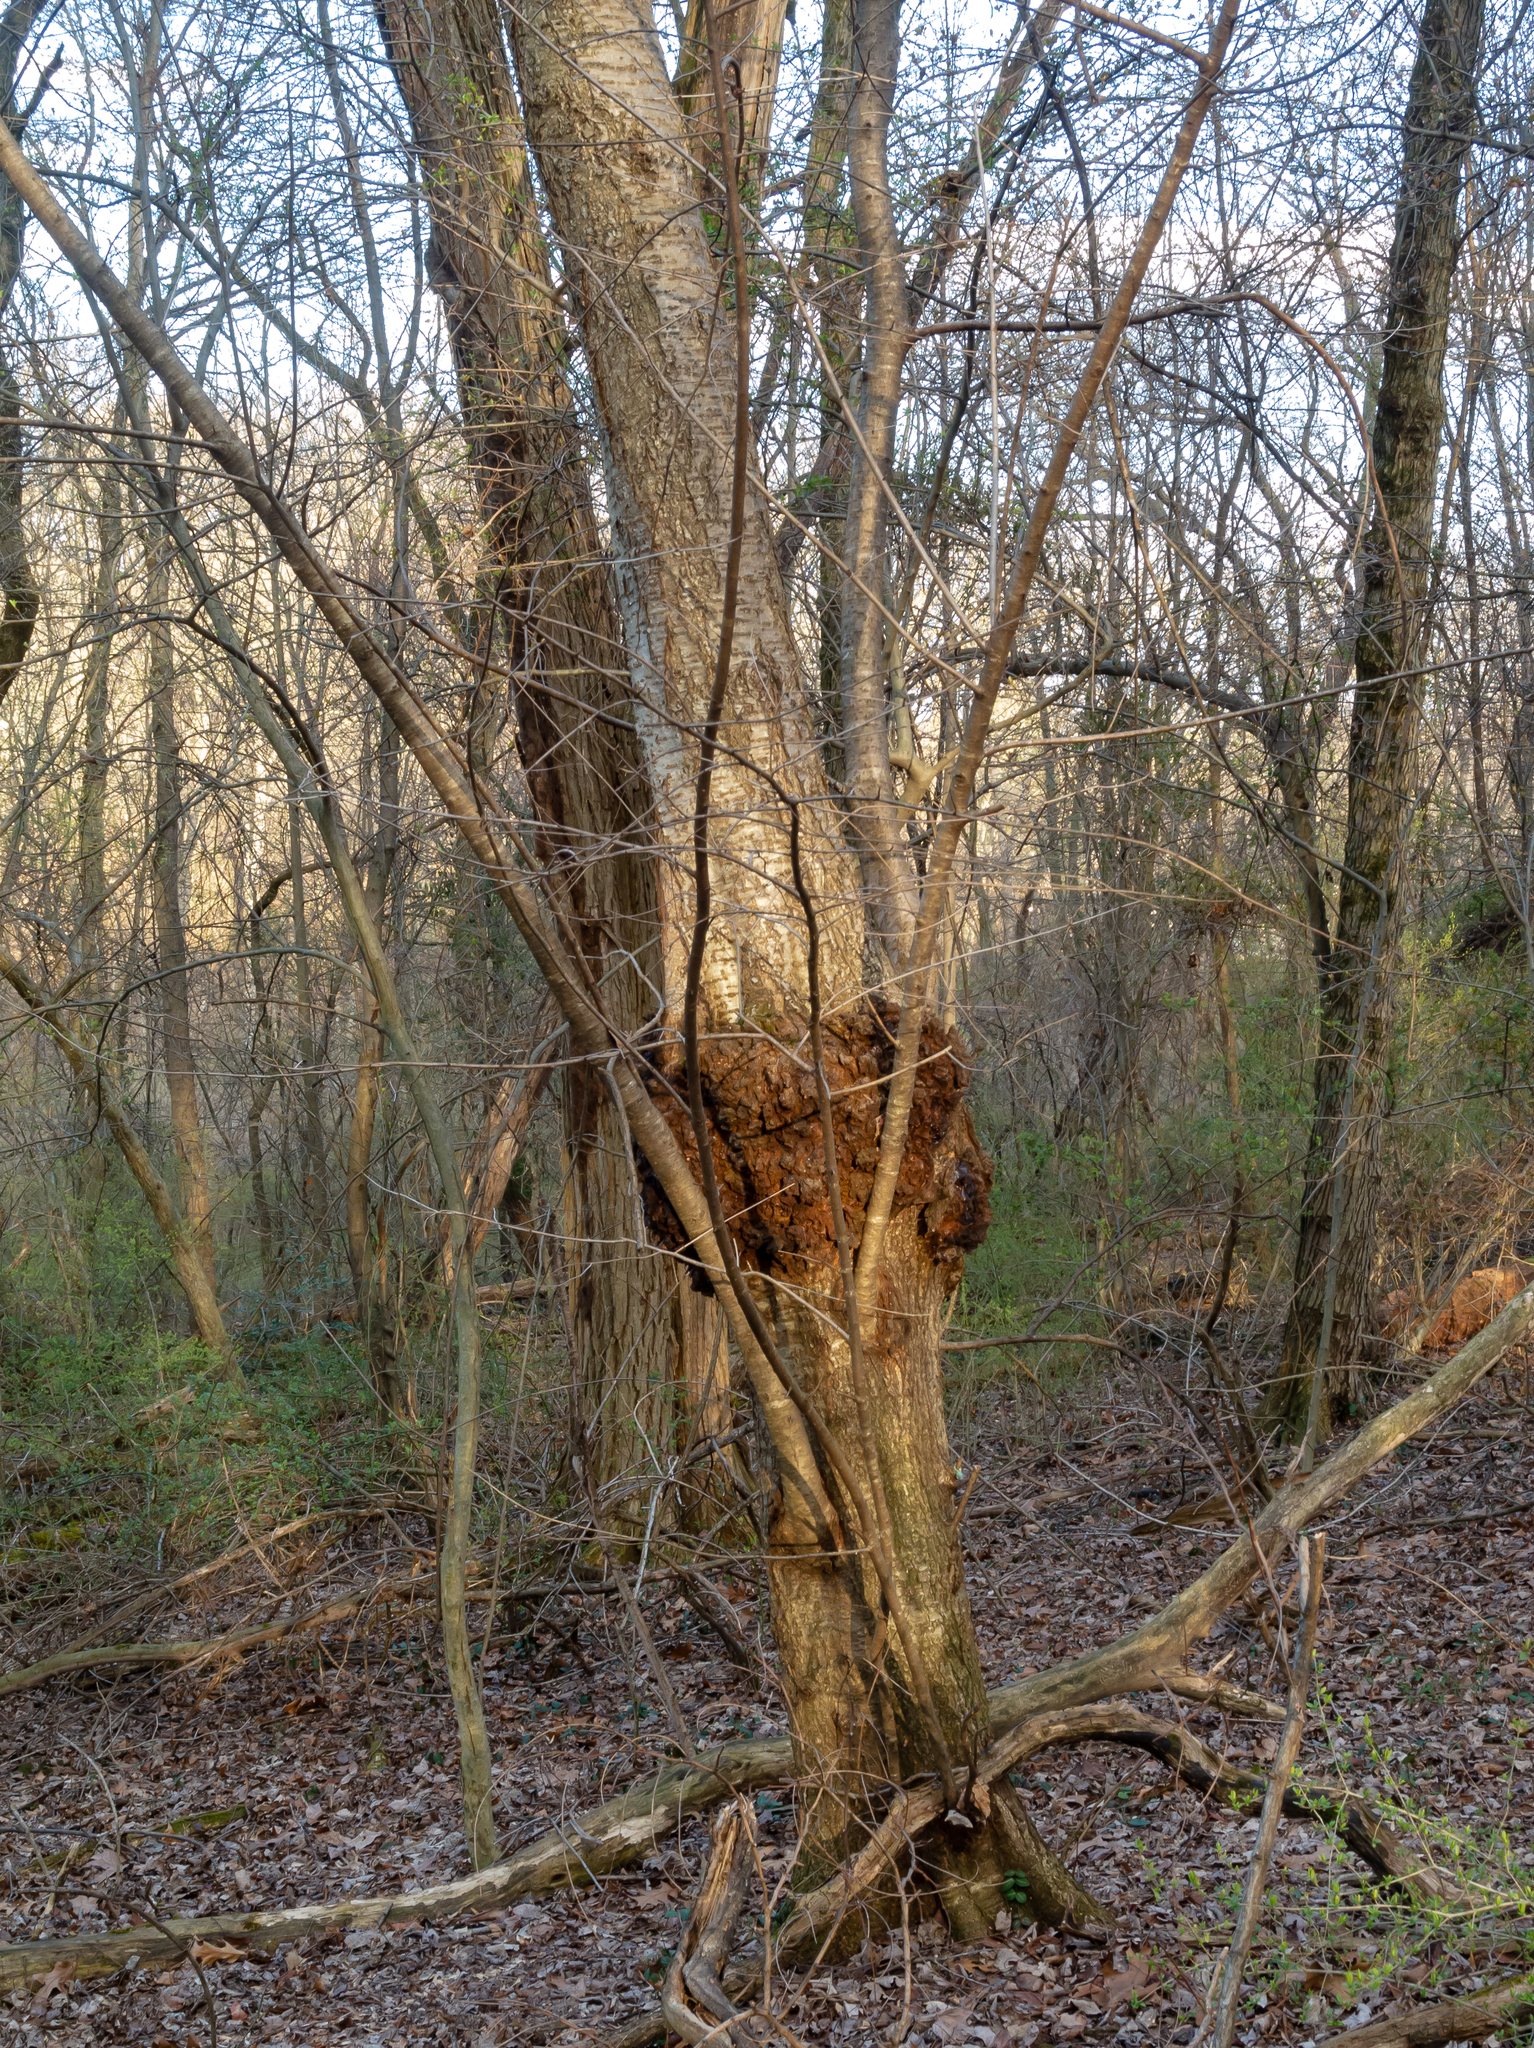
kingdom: Plantae
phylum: Tracheophyta
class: Magnoliopsida
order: Rosales
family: Rosaceae
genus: Prunus
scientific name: Prunus avium
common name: Sweet cherry
